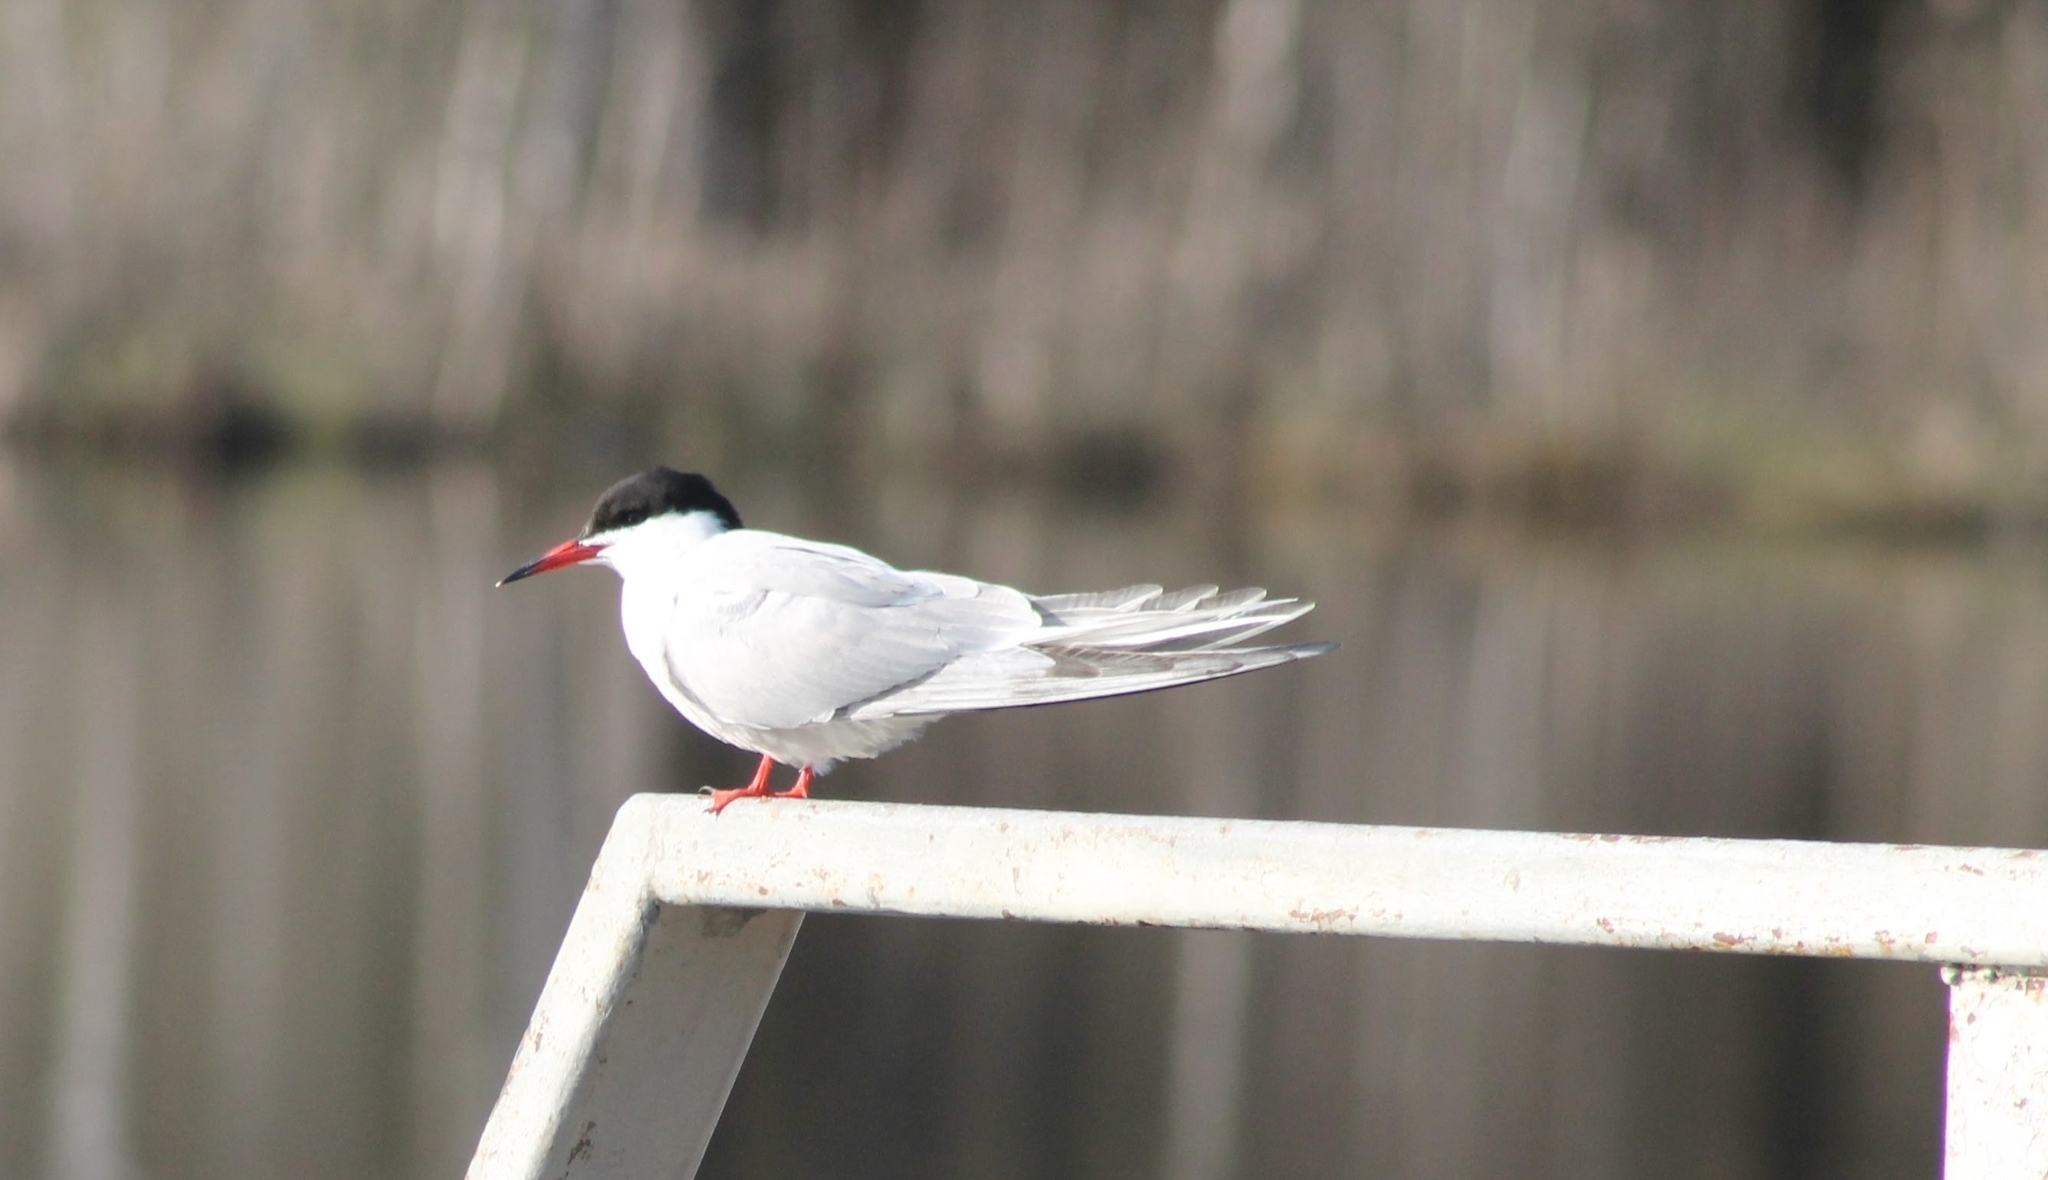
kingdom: Animalia
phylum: Chordata
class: Aves
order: Charadriiformes
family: Laridae
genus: Sterna
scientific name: Sterna hirundo
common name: Common tern
